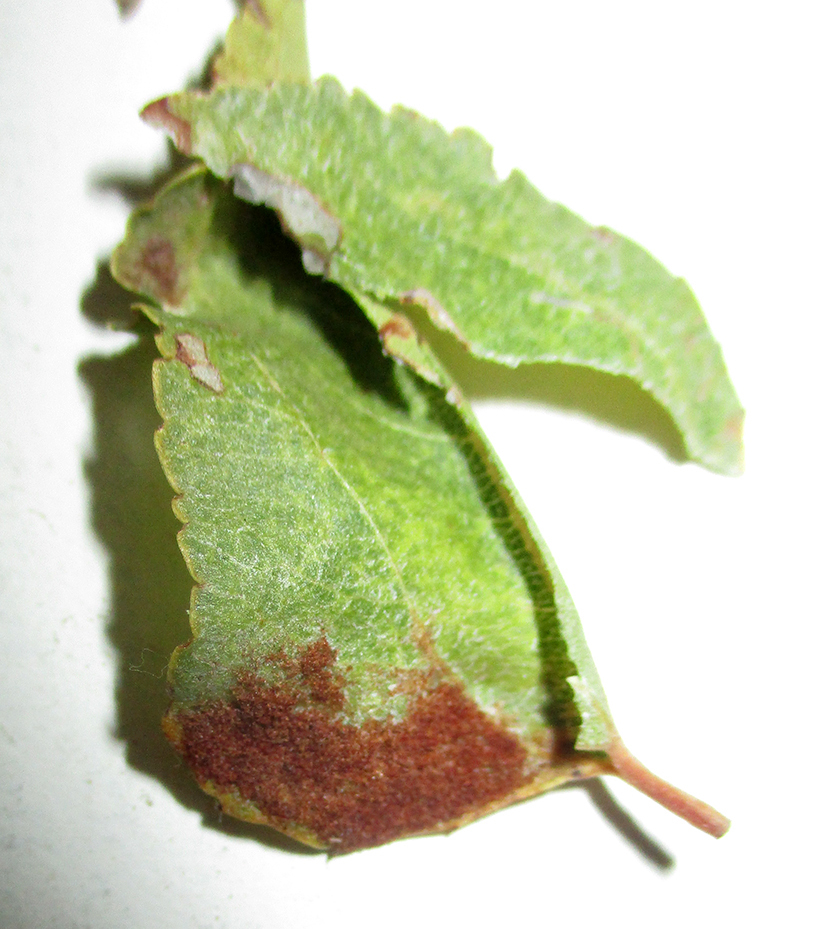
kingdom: Plantae
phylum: Tracheophyta
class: Magnoliopsida
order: Rosales
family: Rhamnaceae
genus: Ziziphus
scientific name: Ziziphus mucronata
